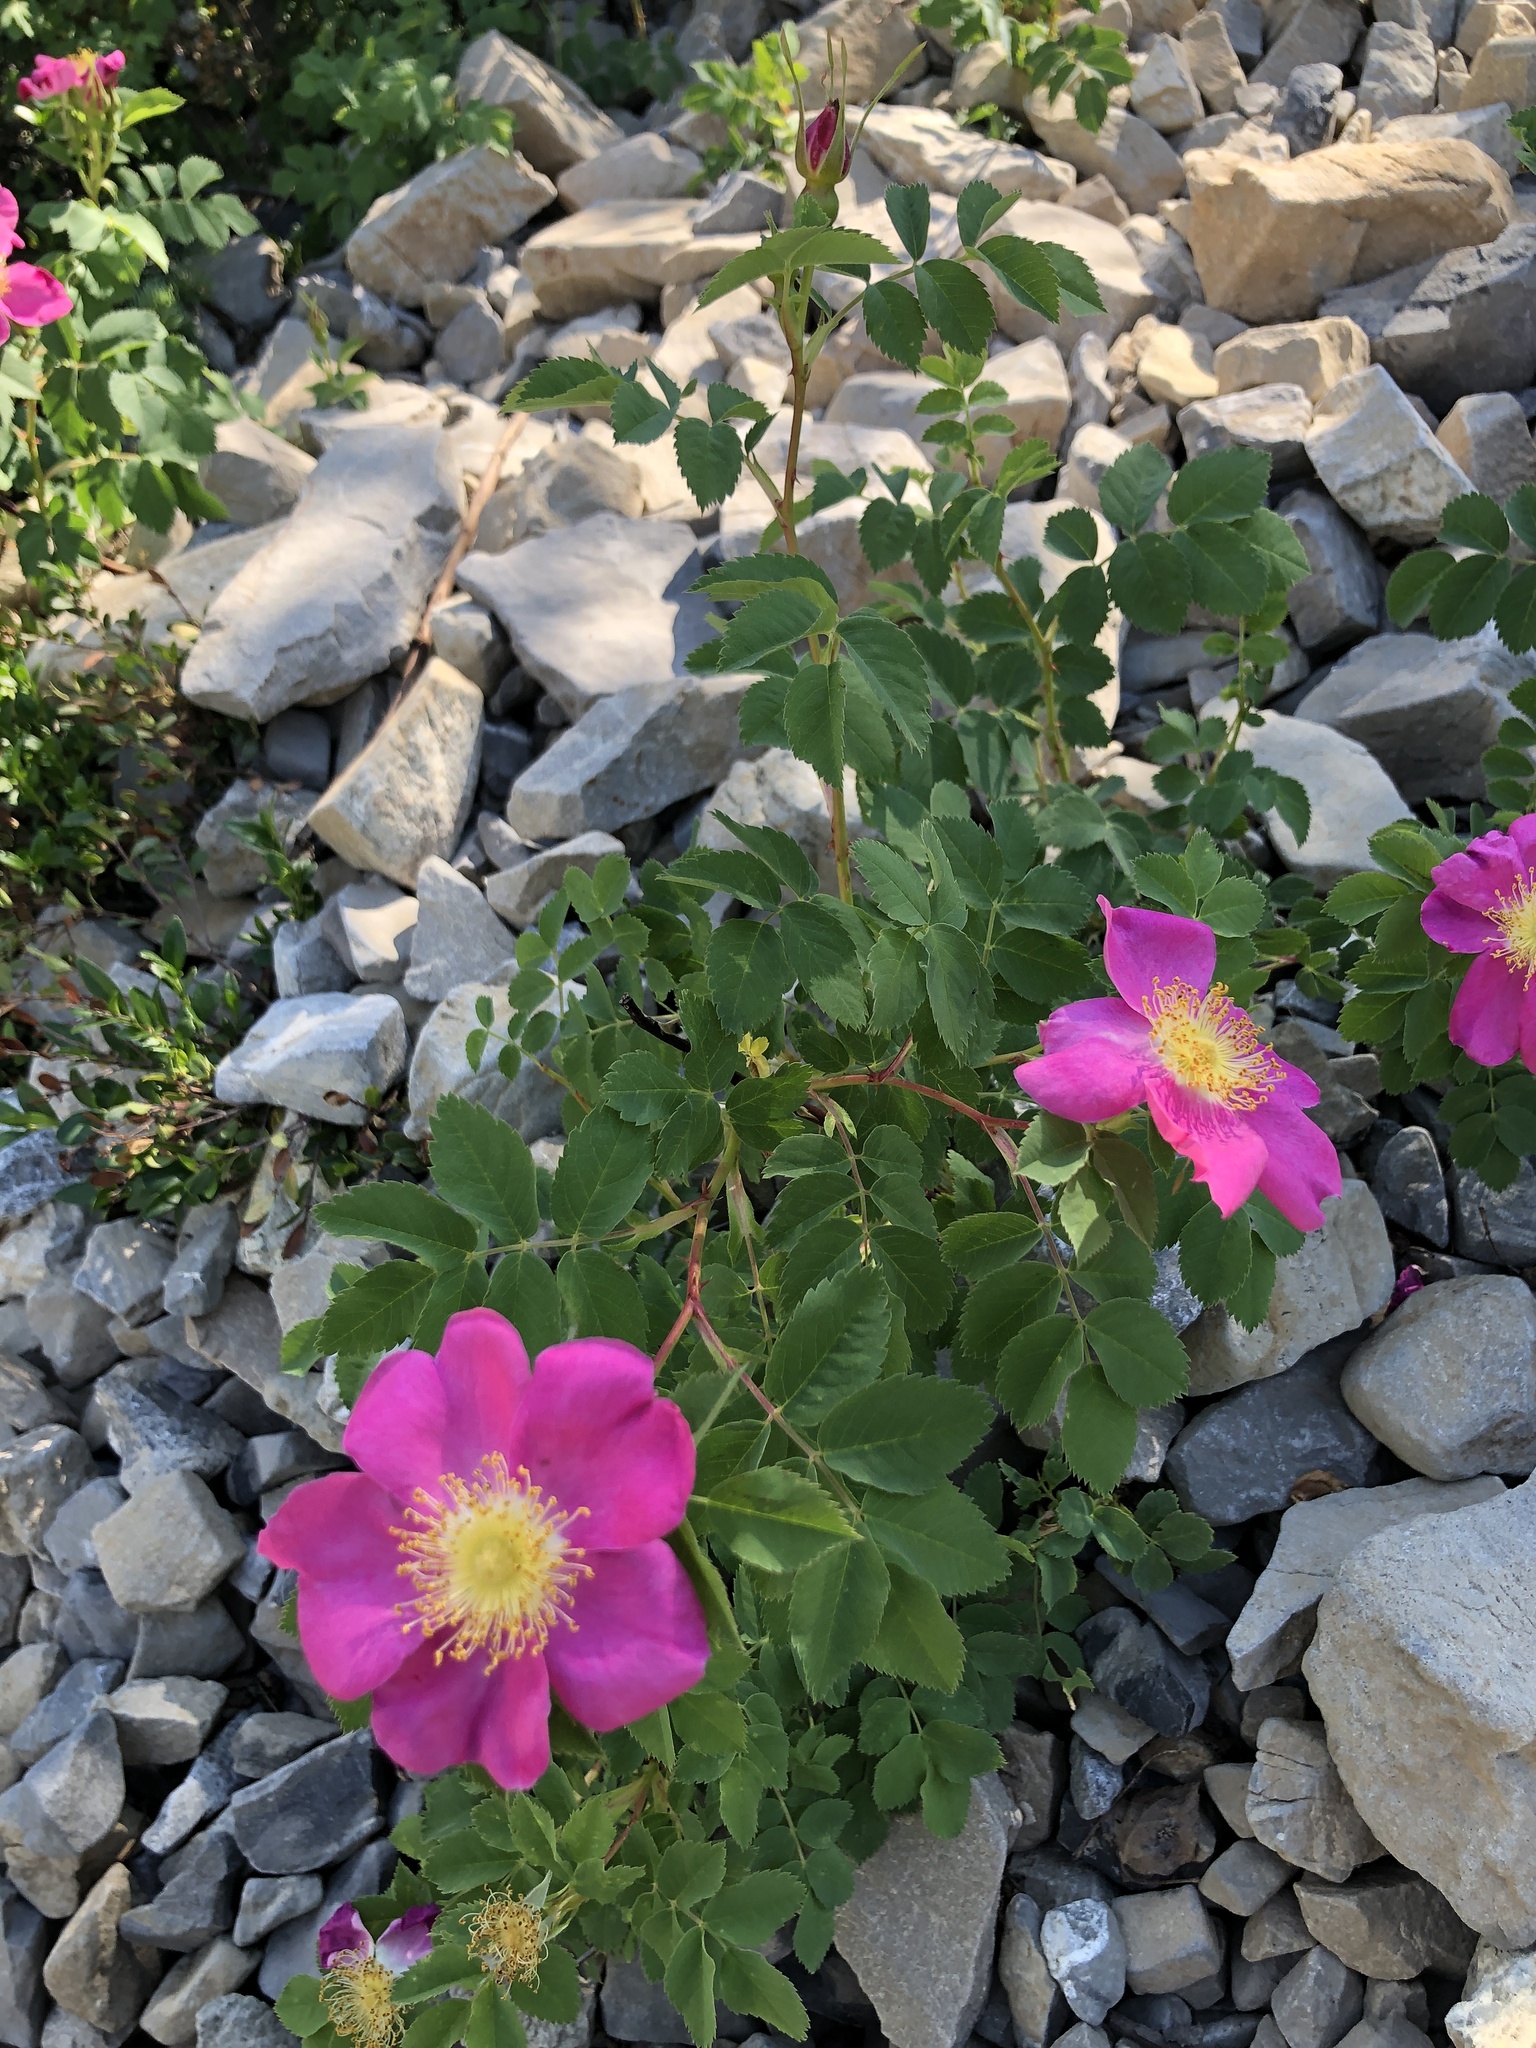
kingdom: Plantae
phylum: Tracheophyta
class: Magnoliopsida
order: Rosales
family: Rosaceae
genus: Rosa
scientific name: Rosa woodsii
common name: Woods's rose
